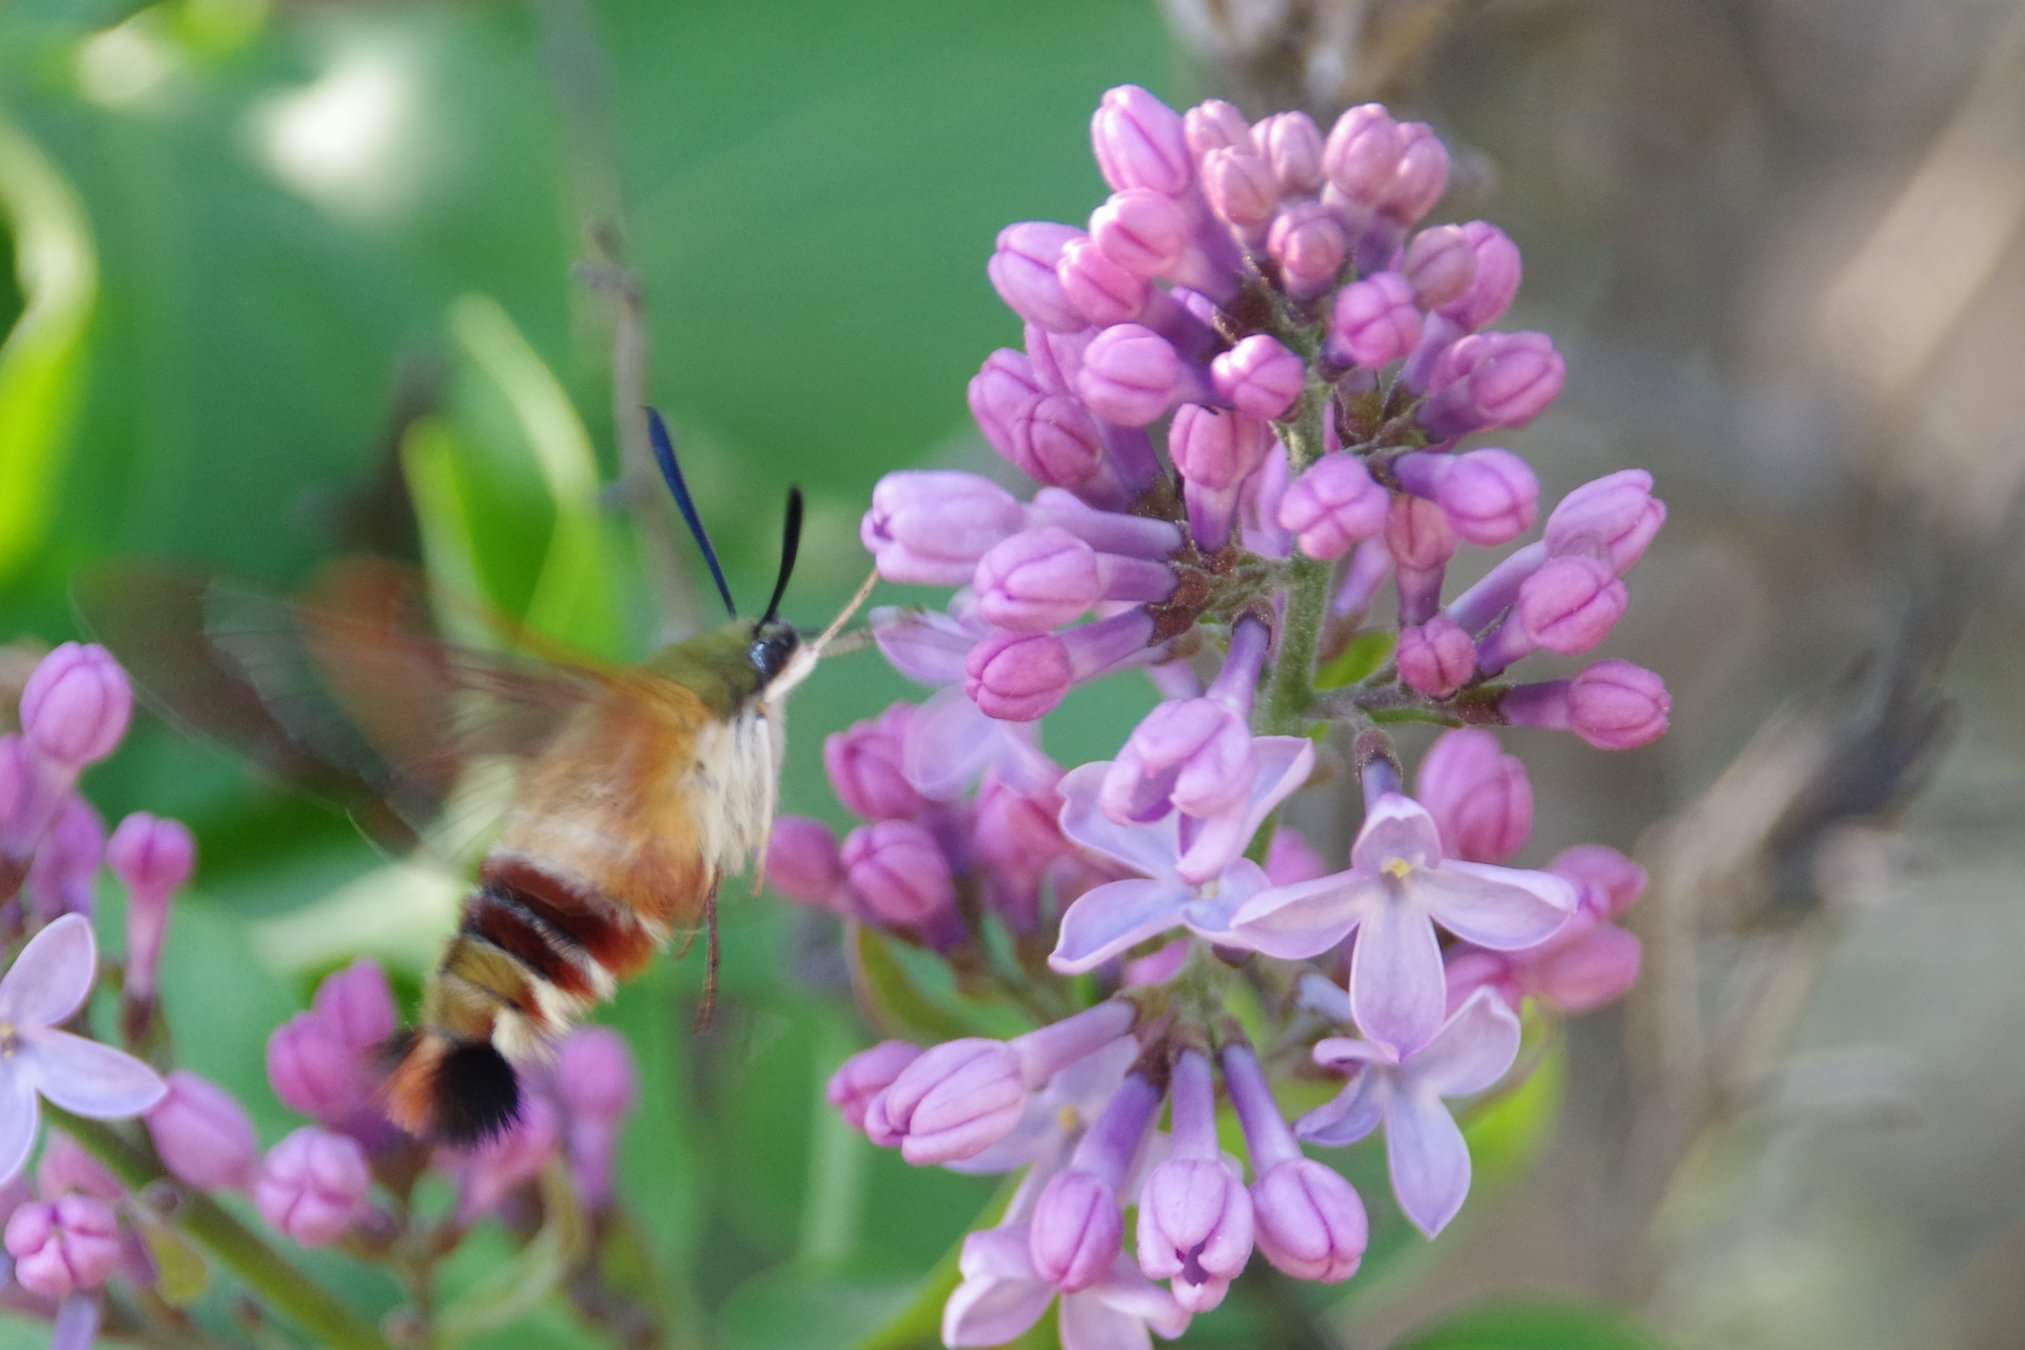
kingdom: Animalia
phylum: Arthropoda
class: Insecta
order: Lepidoptera
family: Sphingidae
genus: Hemaris
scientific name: Hemaris thysbe
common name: Common clear-wing
